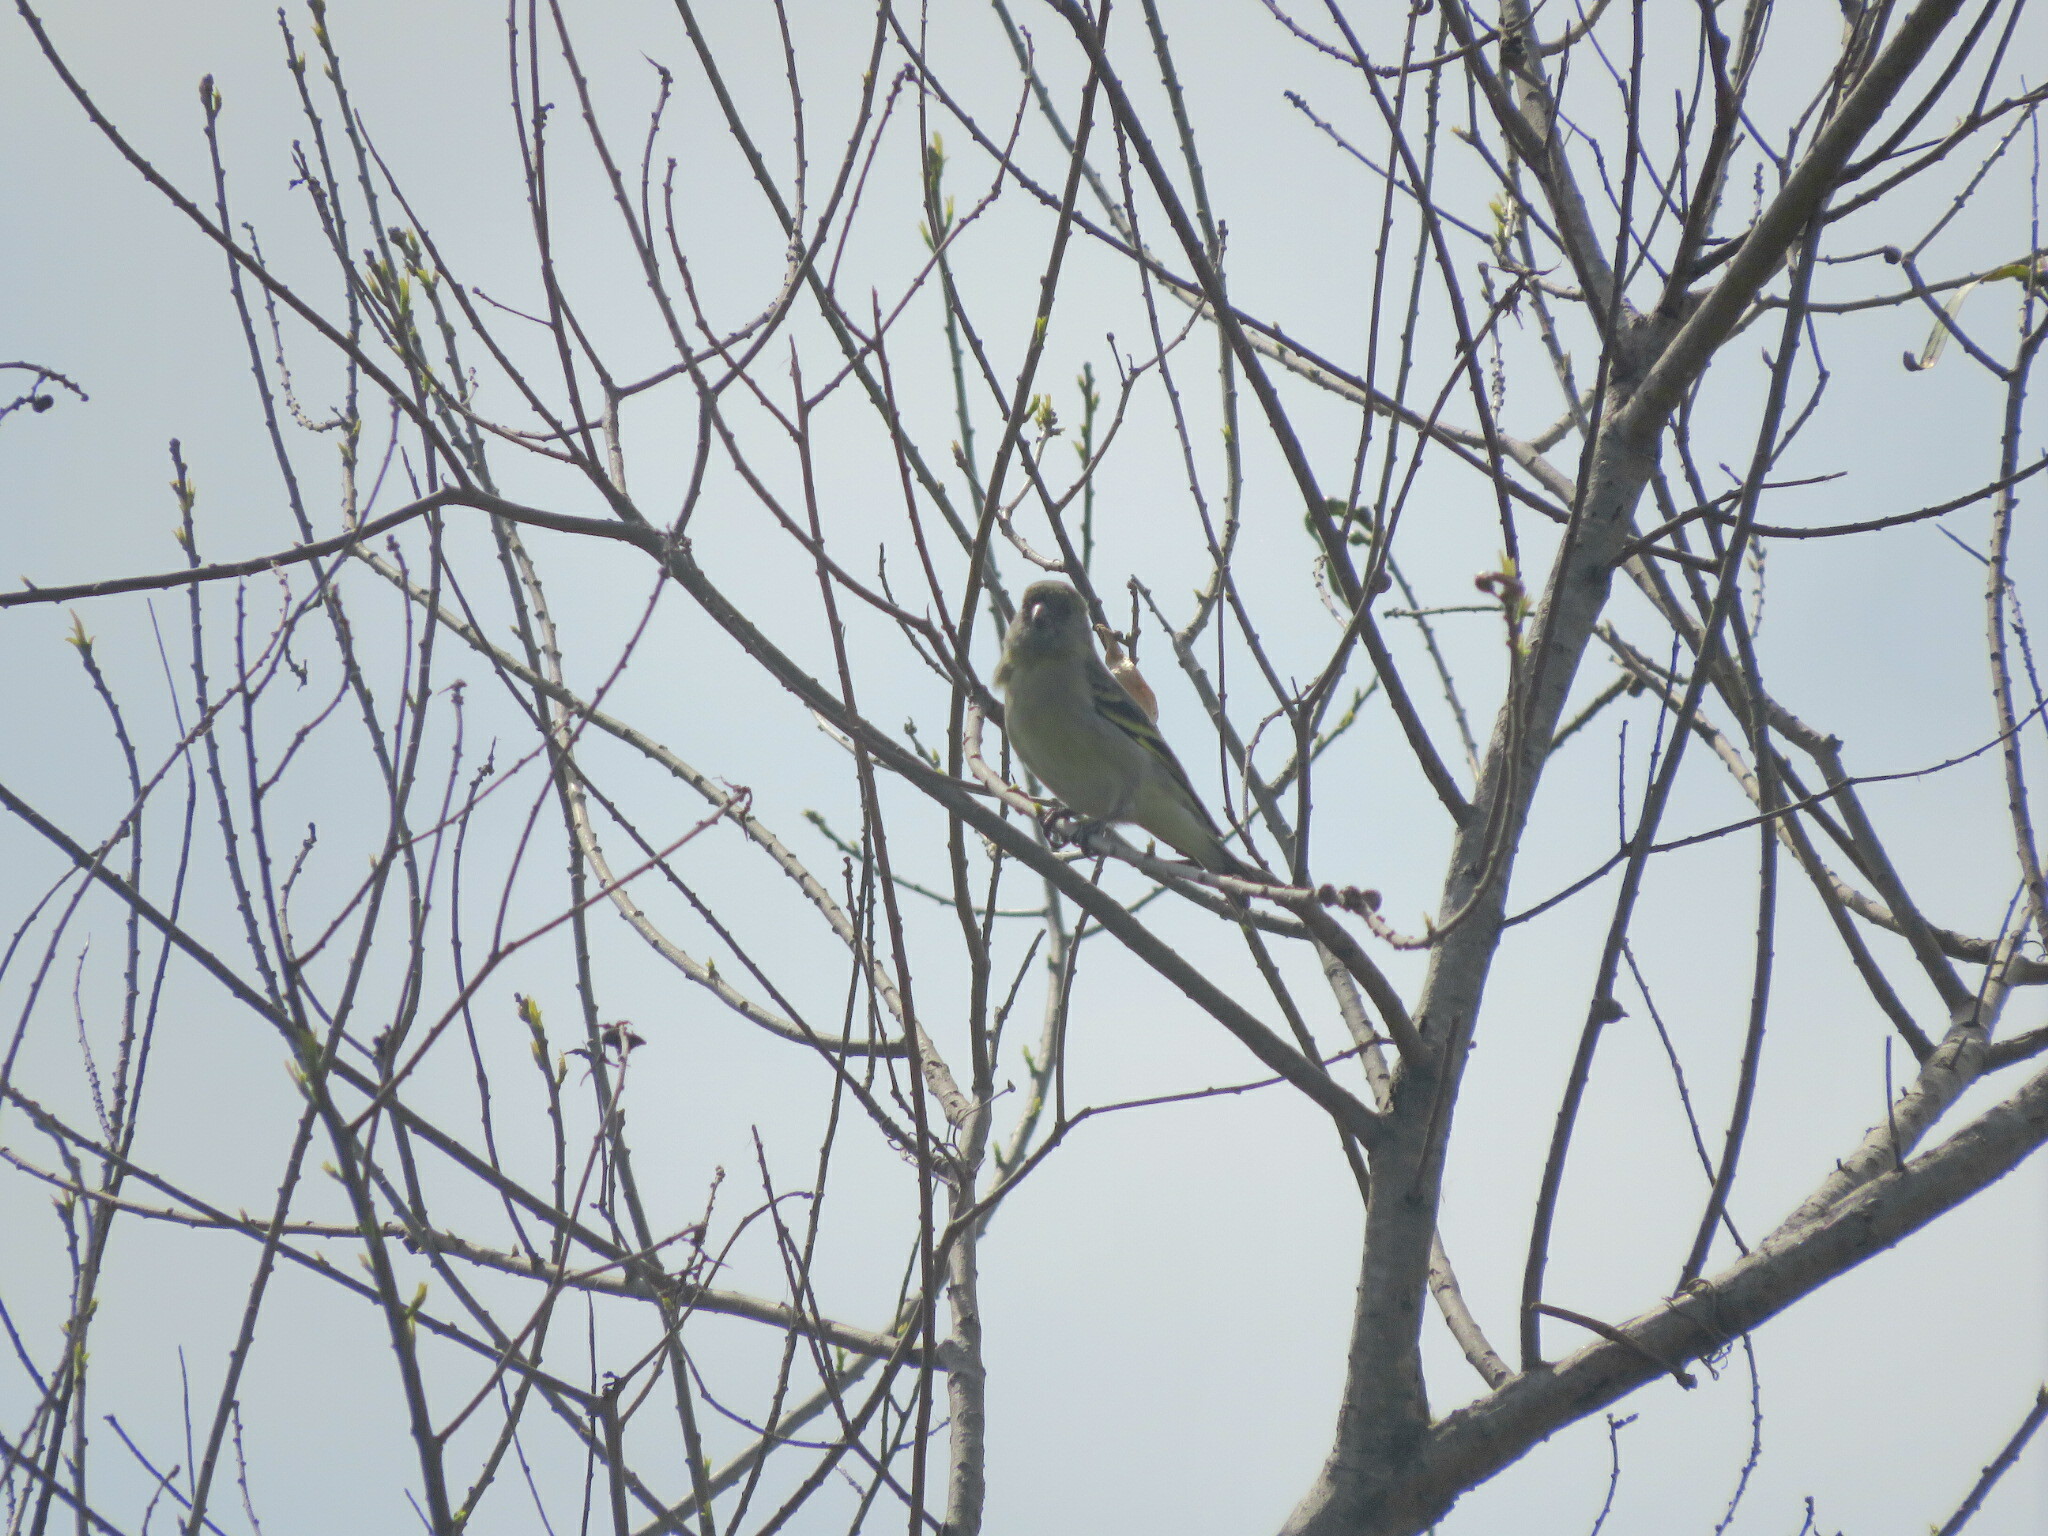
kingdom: Animalia
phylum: Chordata
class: Aves
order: Passeriformes
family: Fringillidae
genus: Spinus
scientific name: Spinus magellanicus
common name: Hooded siskin
